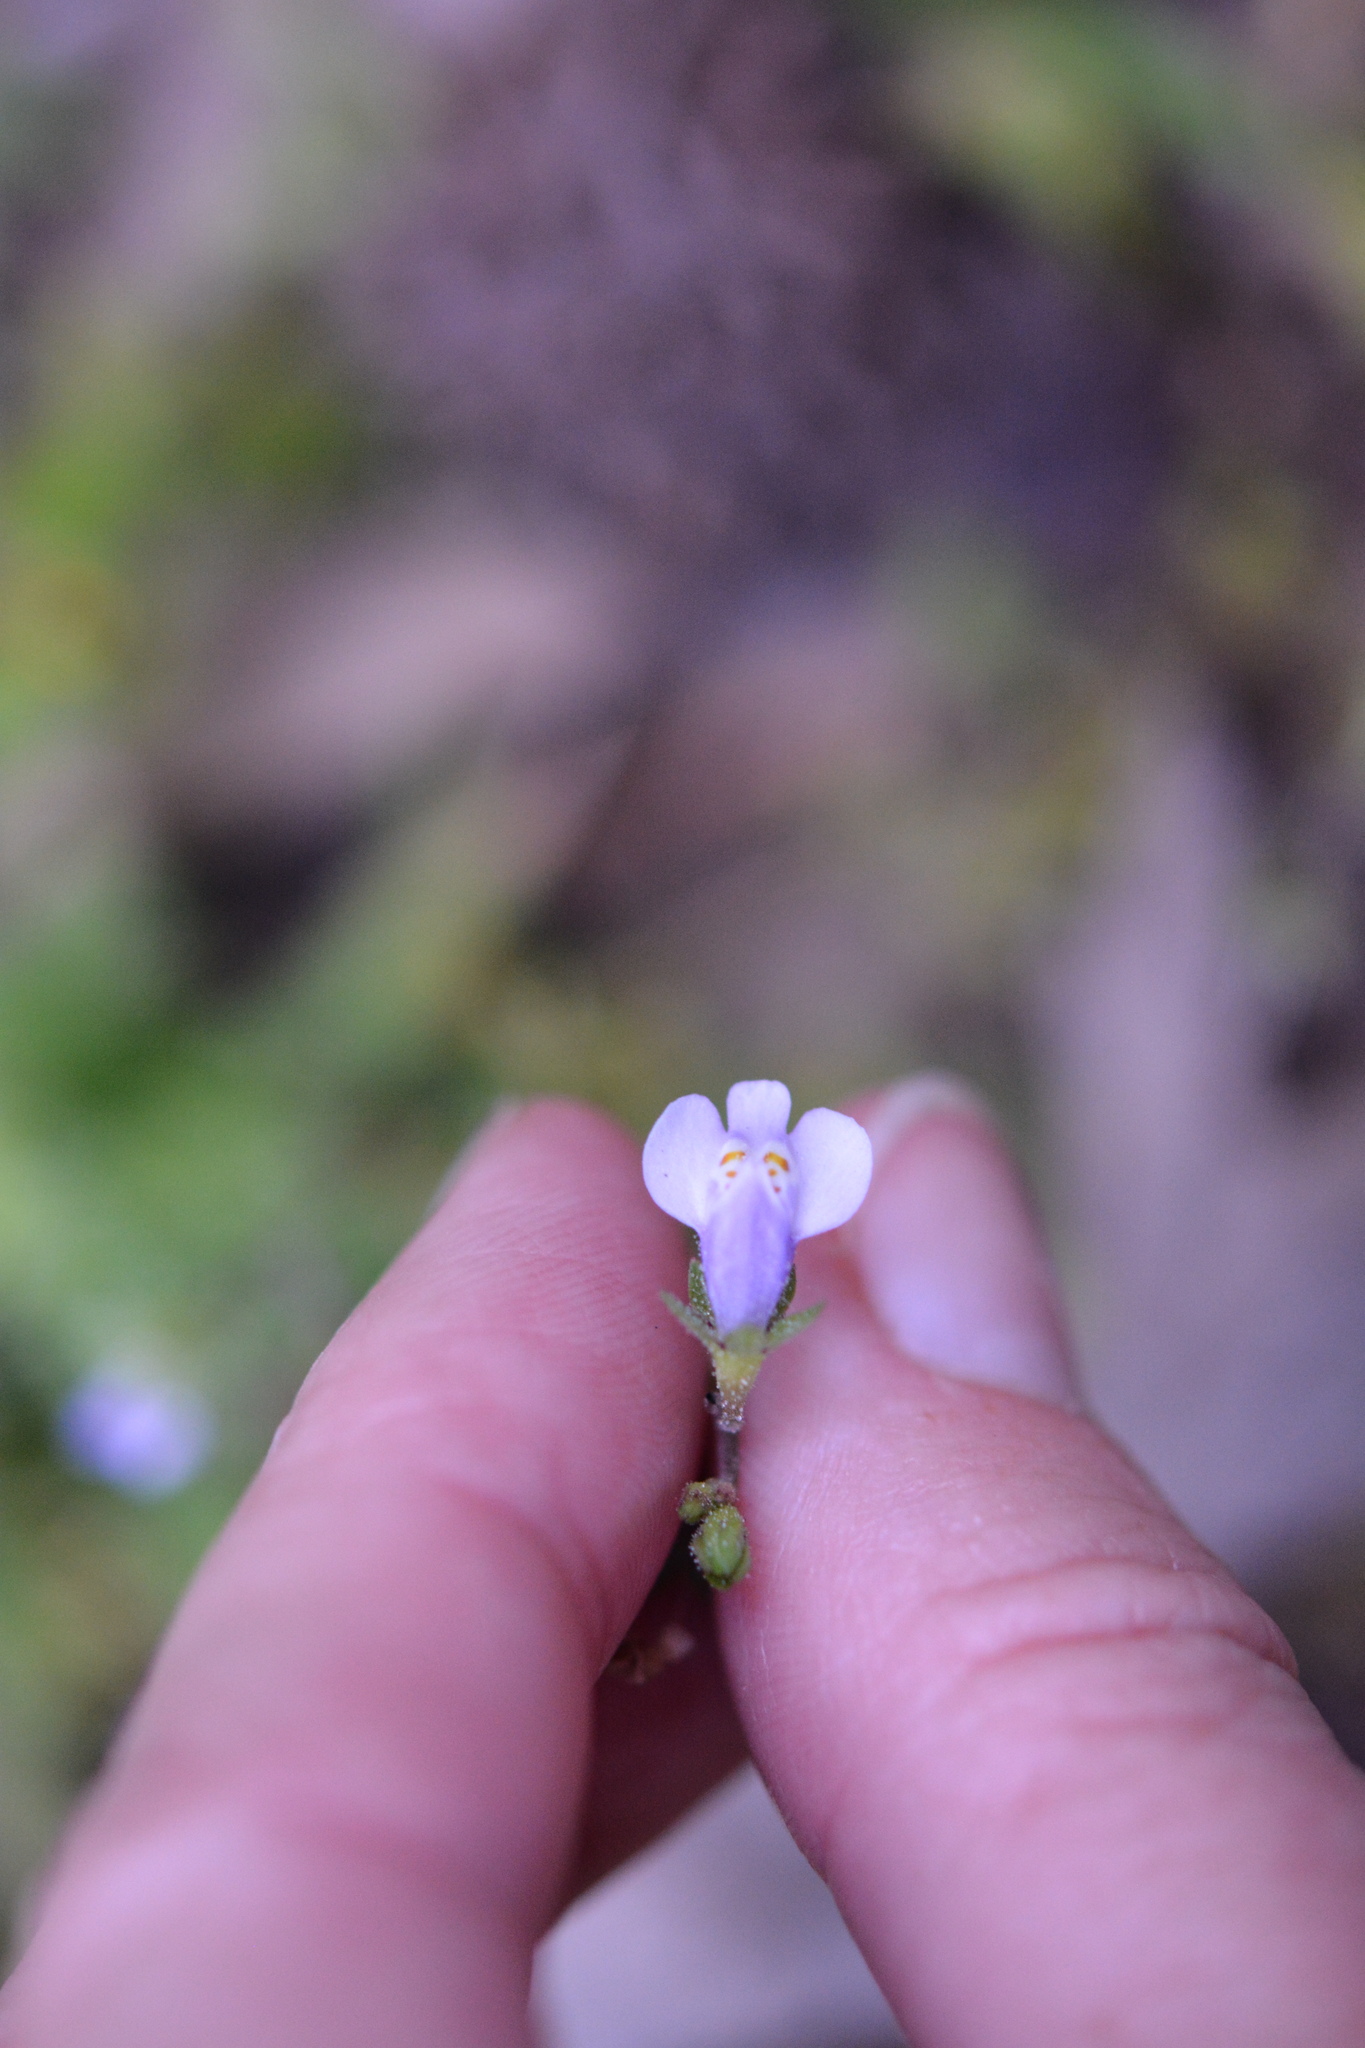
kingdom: Plantae
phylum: Tracheophyta
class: Magnoliopsida
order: Lamiales
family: Mazaceae
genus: Mazus
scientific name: Mazus pumilus
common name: Japanese mazus
